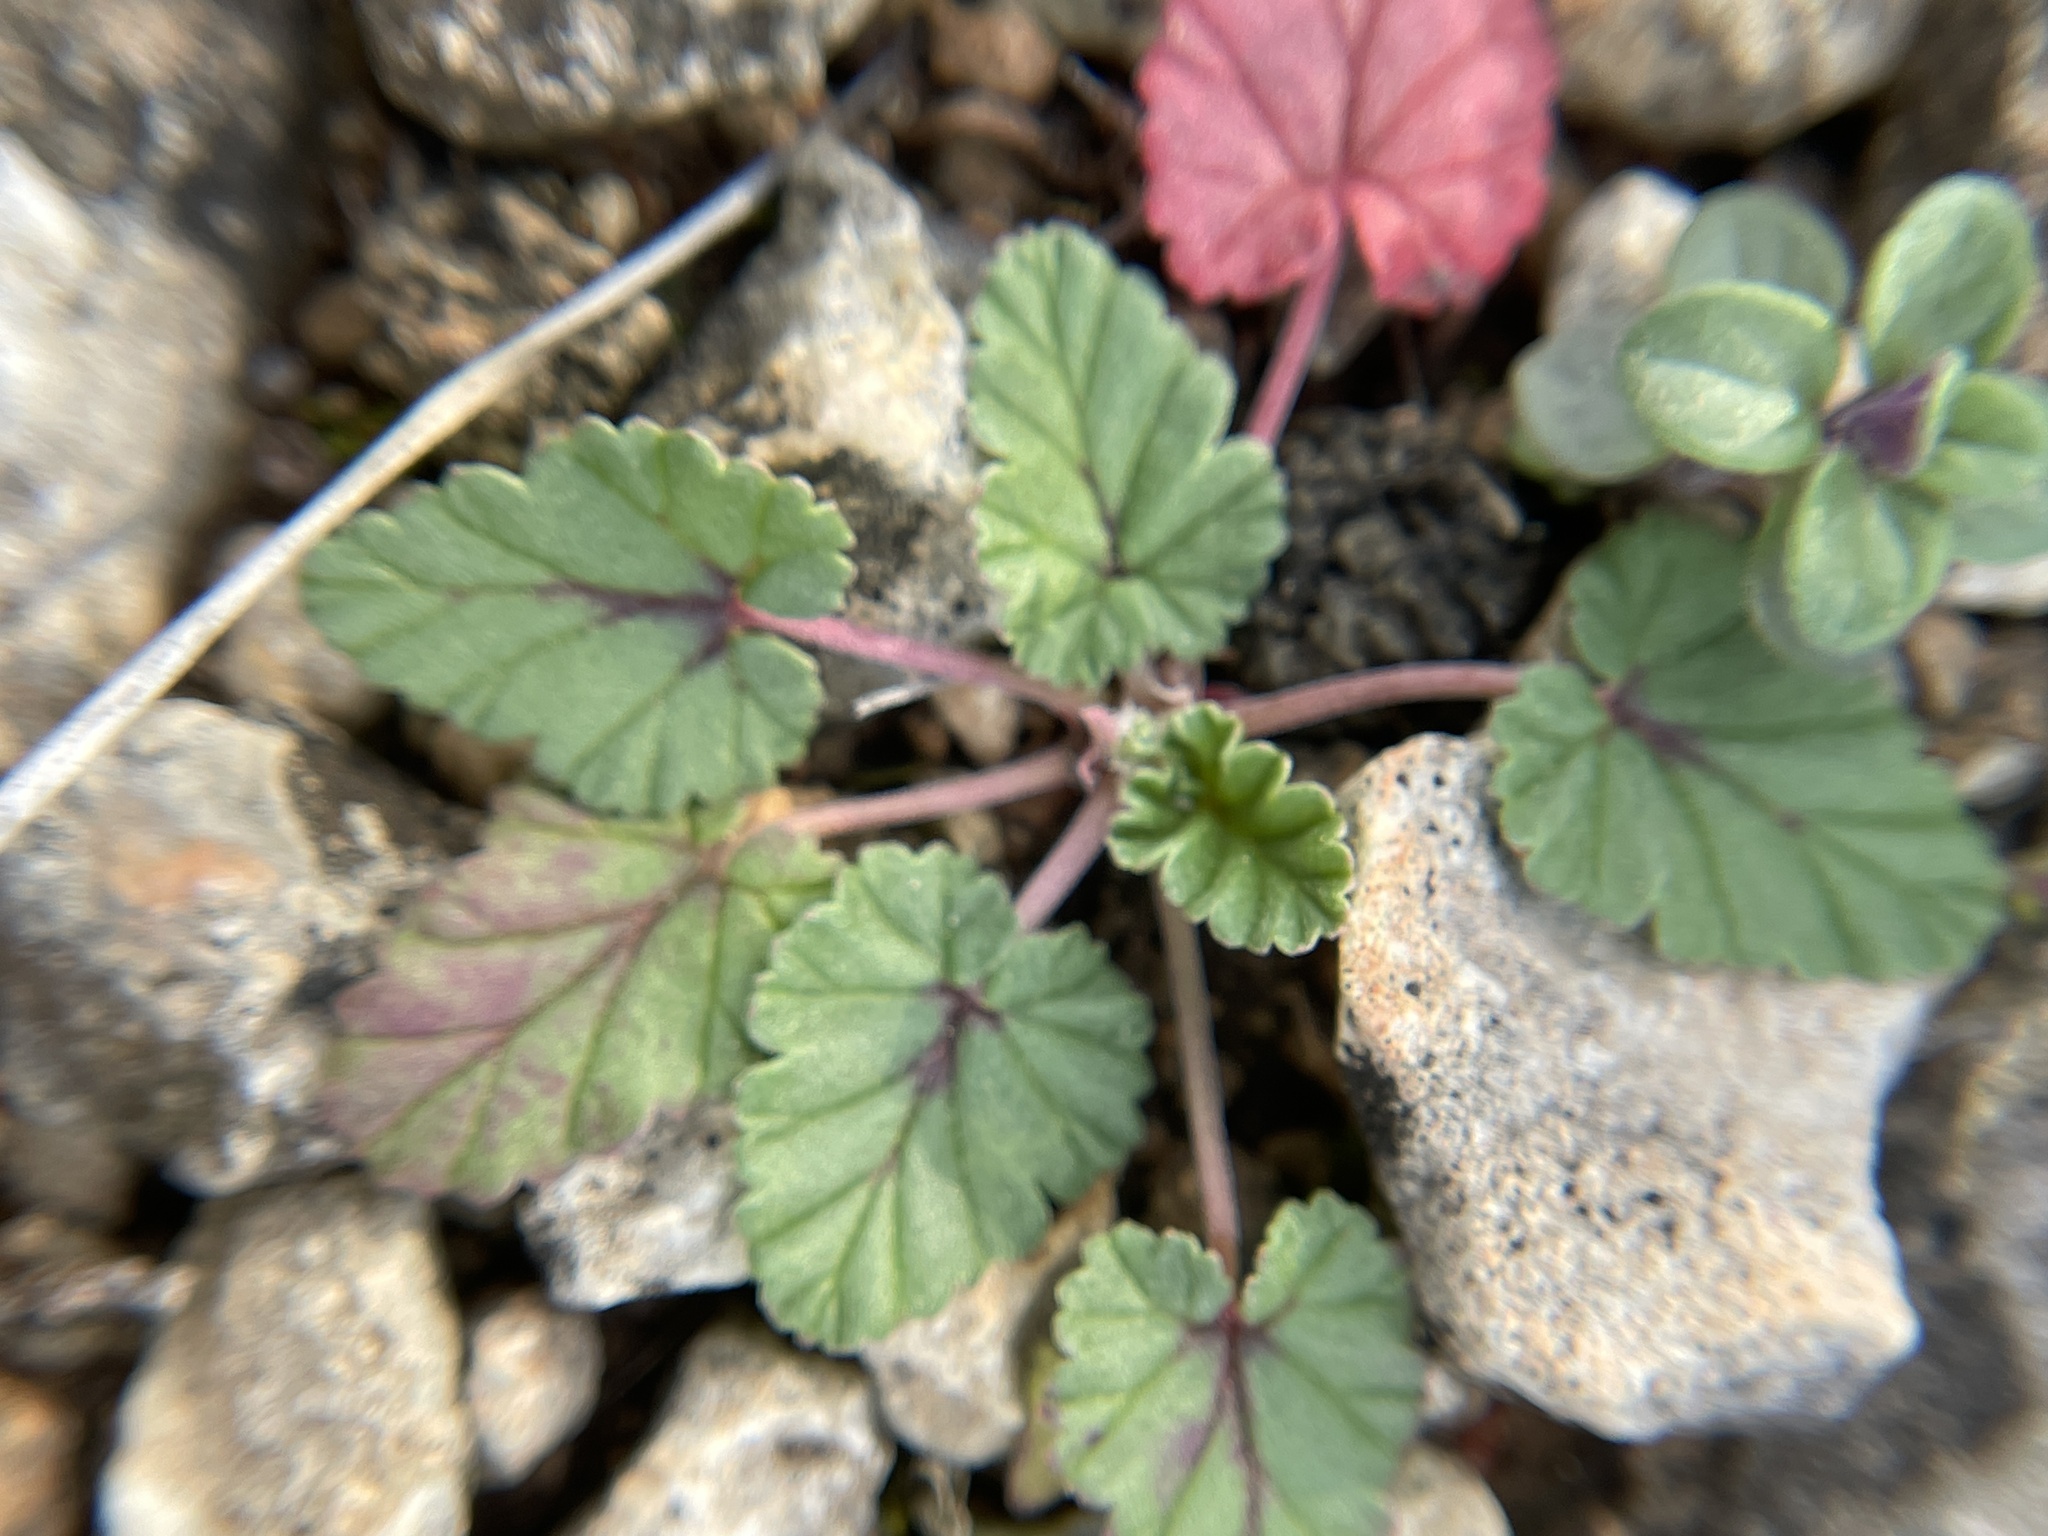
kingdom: Plantae
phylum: Tracheophyta
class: Magnoliopsida
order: Geraniales
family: Geraniaceae
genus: Erodium
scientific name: Erodium texanum
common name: Texas stork's-bill
